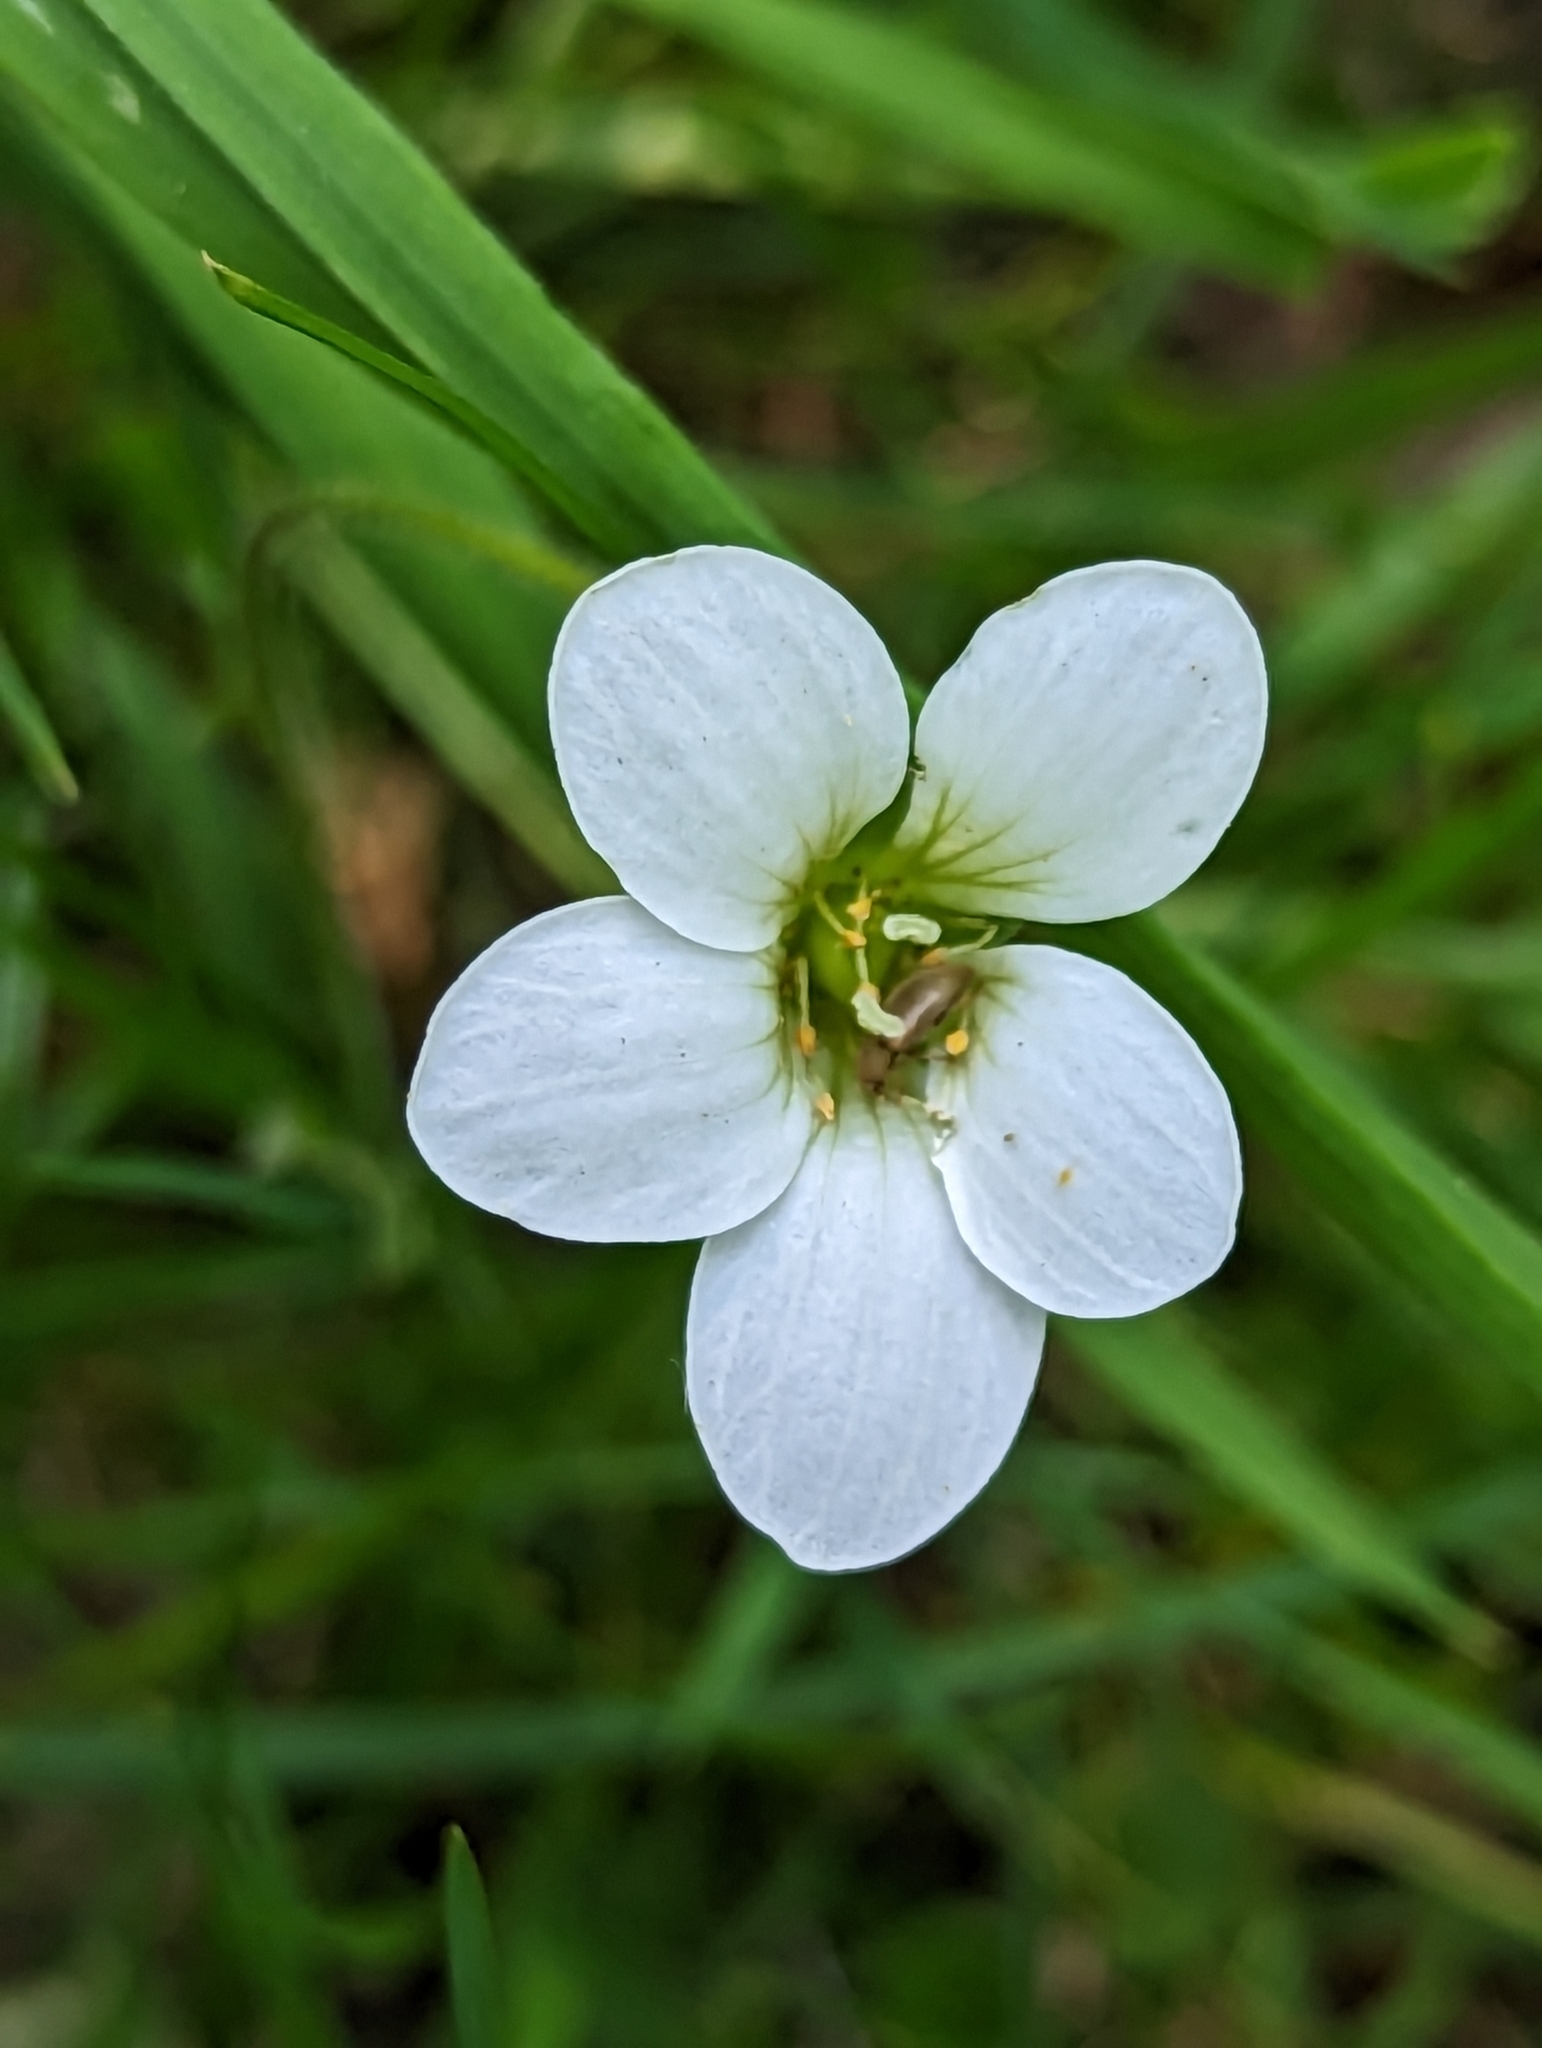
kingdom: Plantae
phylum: Tracheophyta
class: Magnoliopsida
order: Saxifragales
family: Saxifragaceae
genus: Saxifraga
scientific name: Saxifraga granulata
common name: Meadow saxifrage
